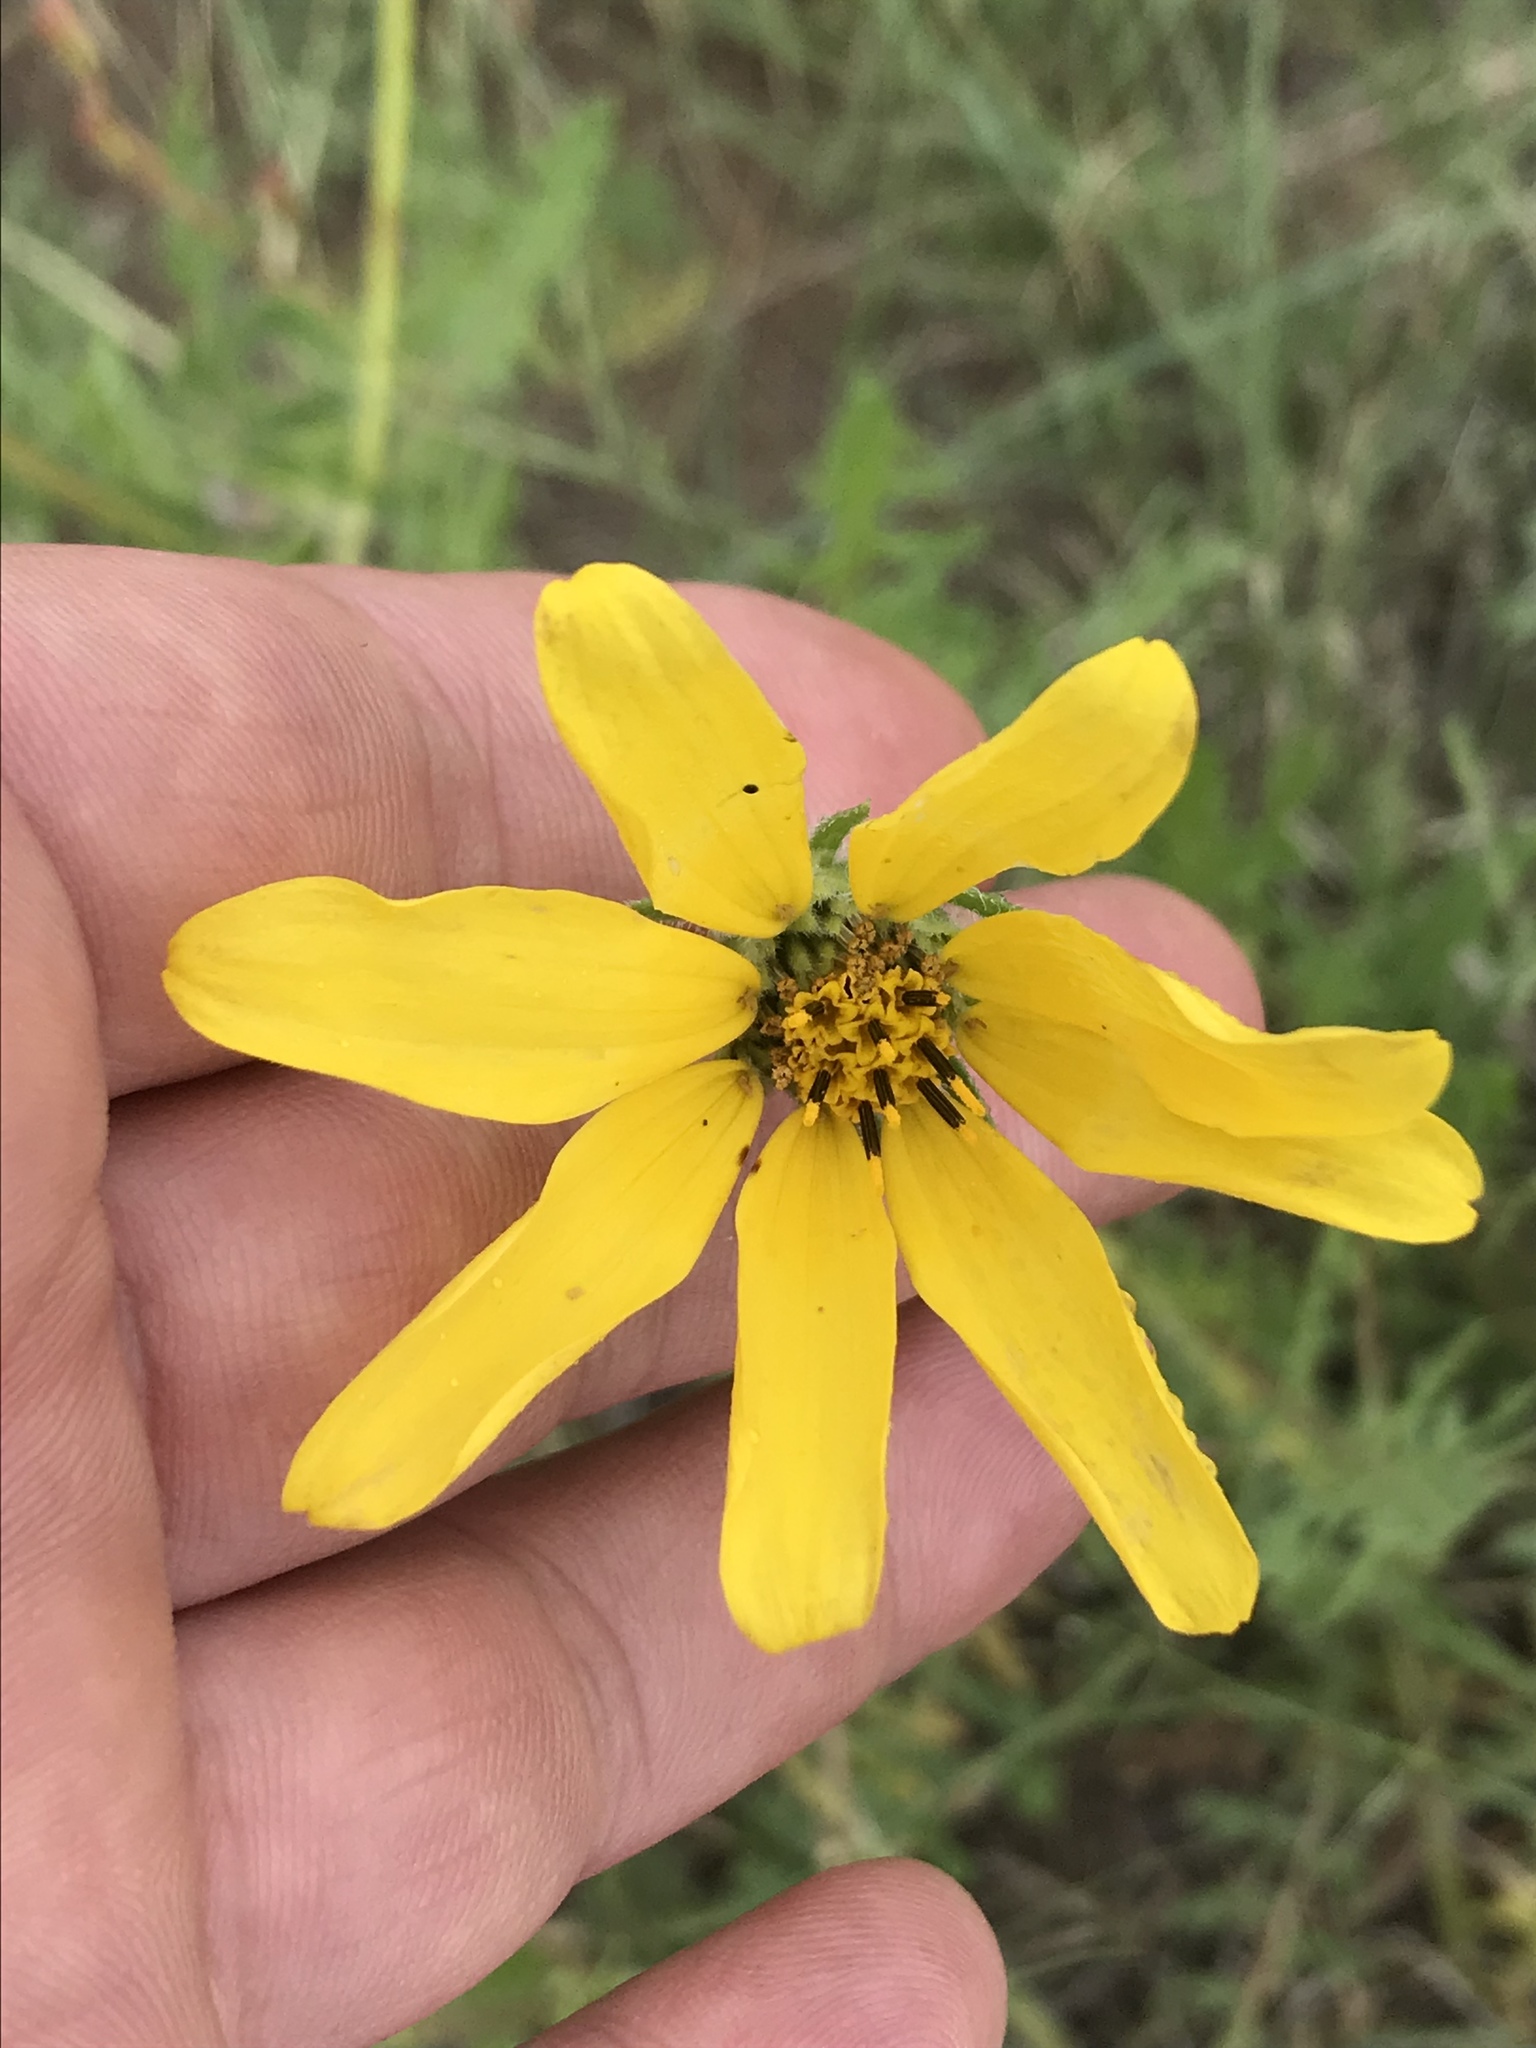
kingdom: Plantae
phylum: Tracheophyta
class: Magnoliopsida
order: Asterales
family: Asteraceae
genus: Engelmannia
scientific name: Engelmannia peristenia
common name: Engelmann's daisy
